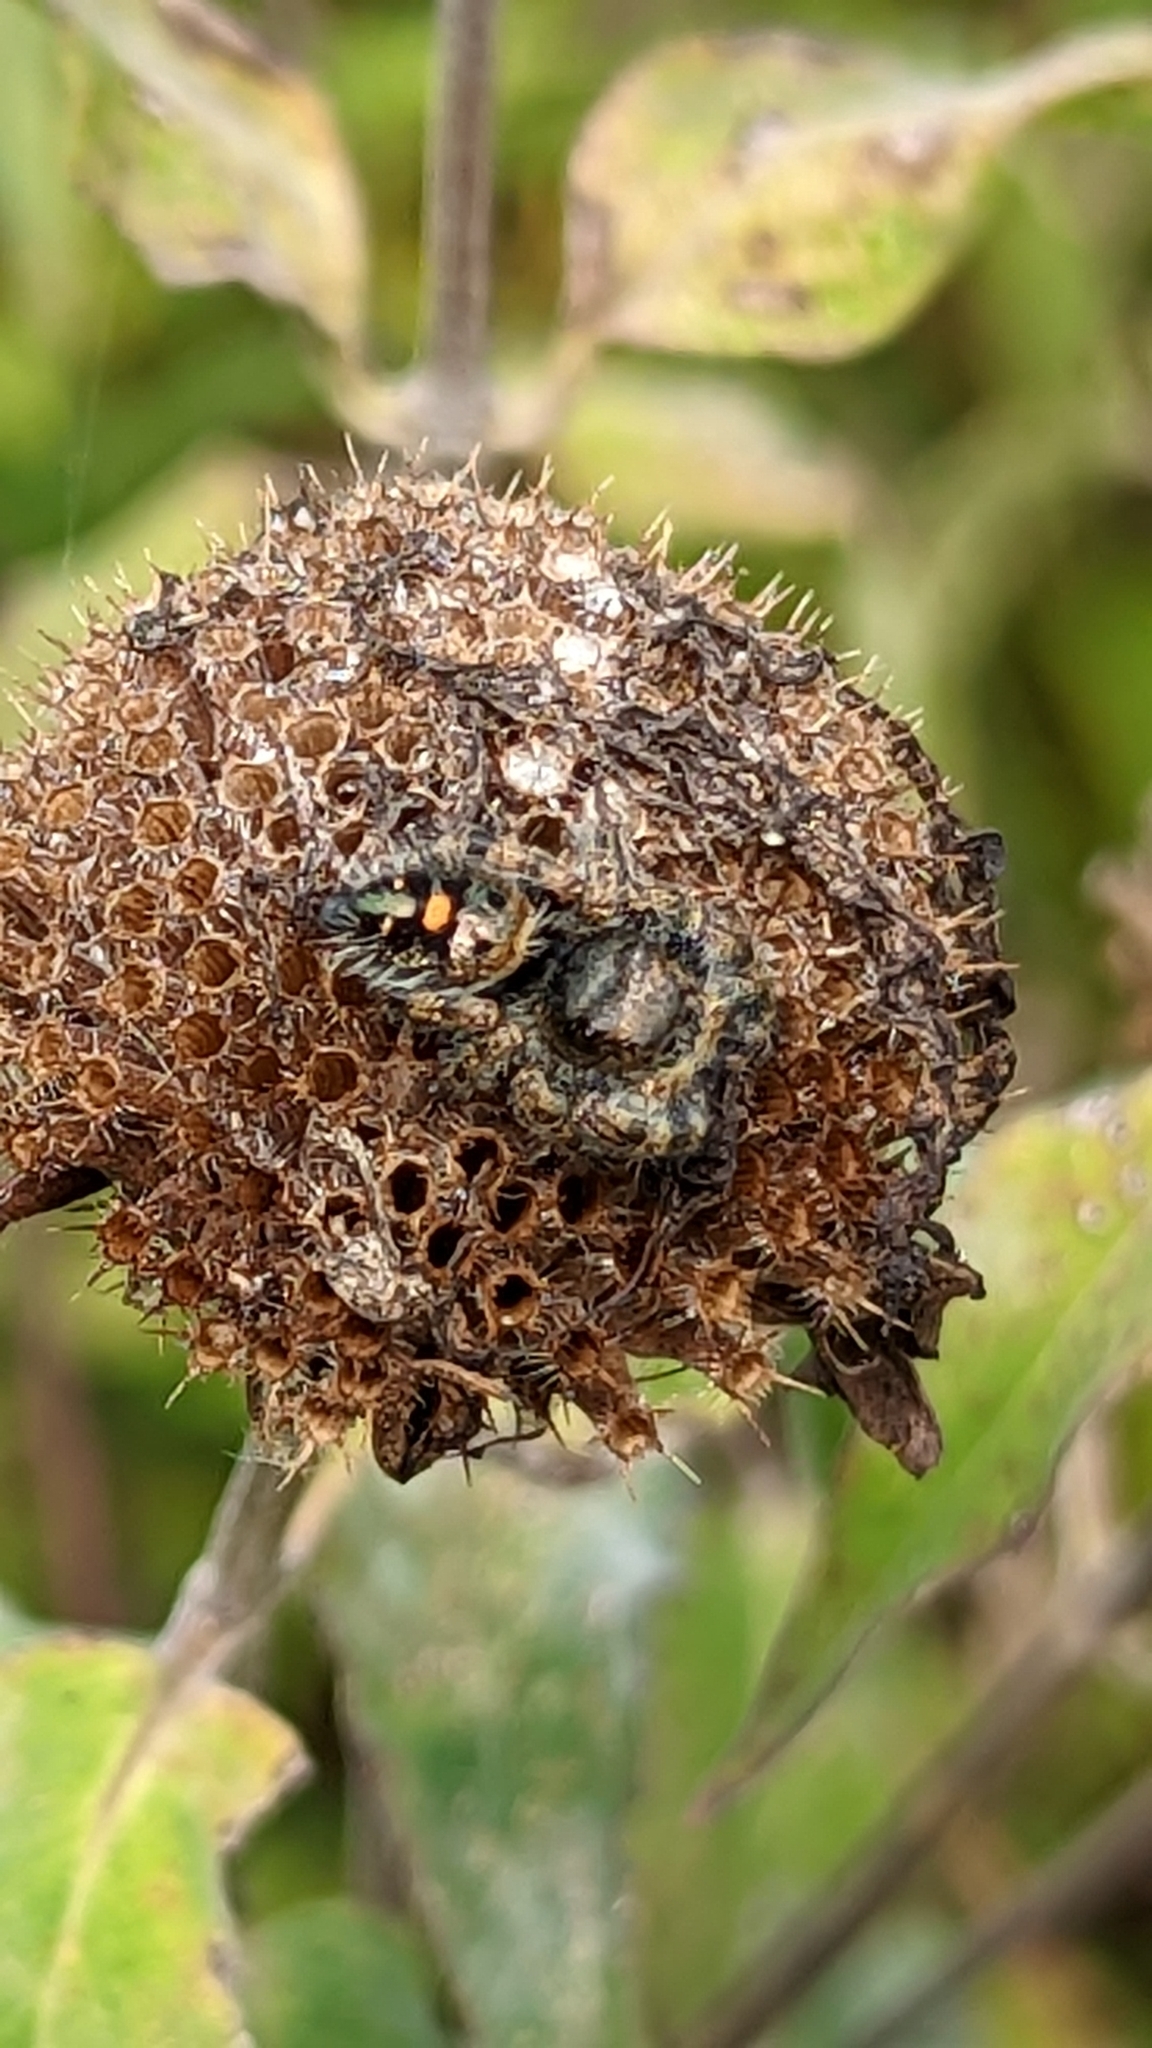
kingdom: Animalia
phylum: Arthropoda
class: Arachnida
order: Araneae
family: Salticidae
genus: Phidippus
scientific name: Phidippus audax
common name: Bold jumper
